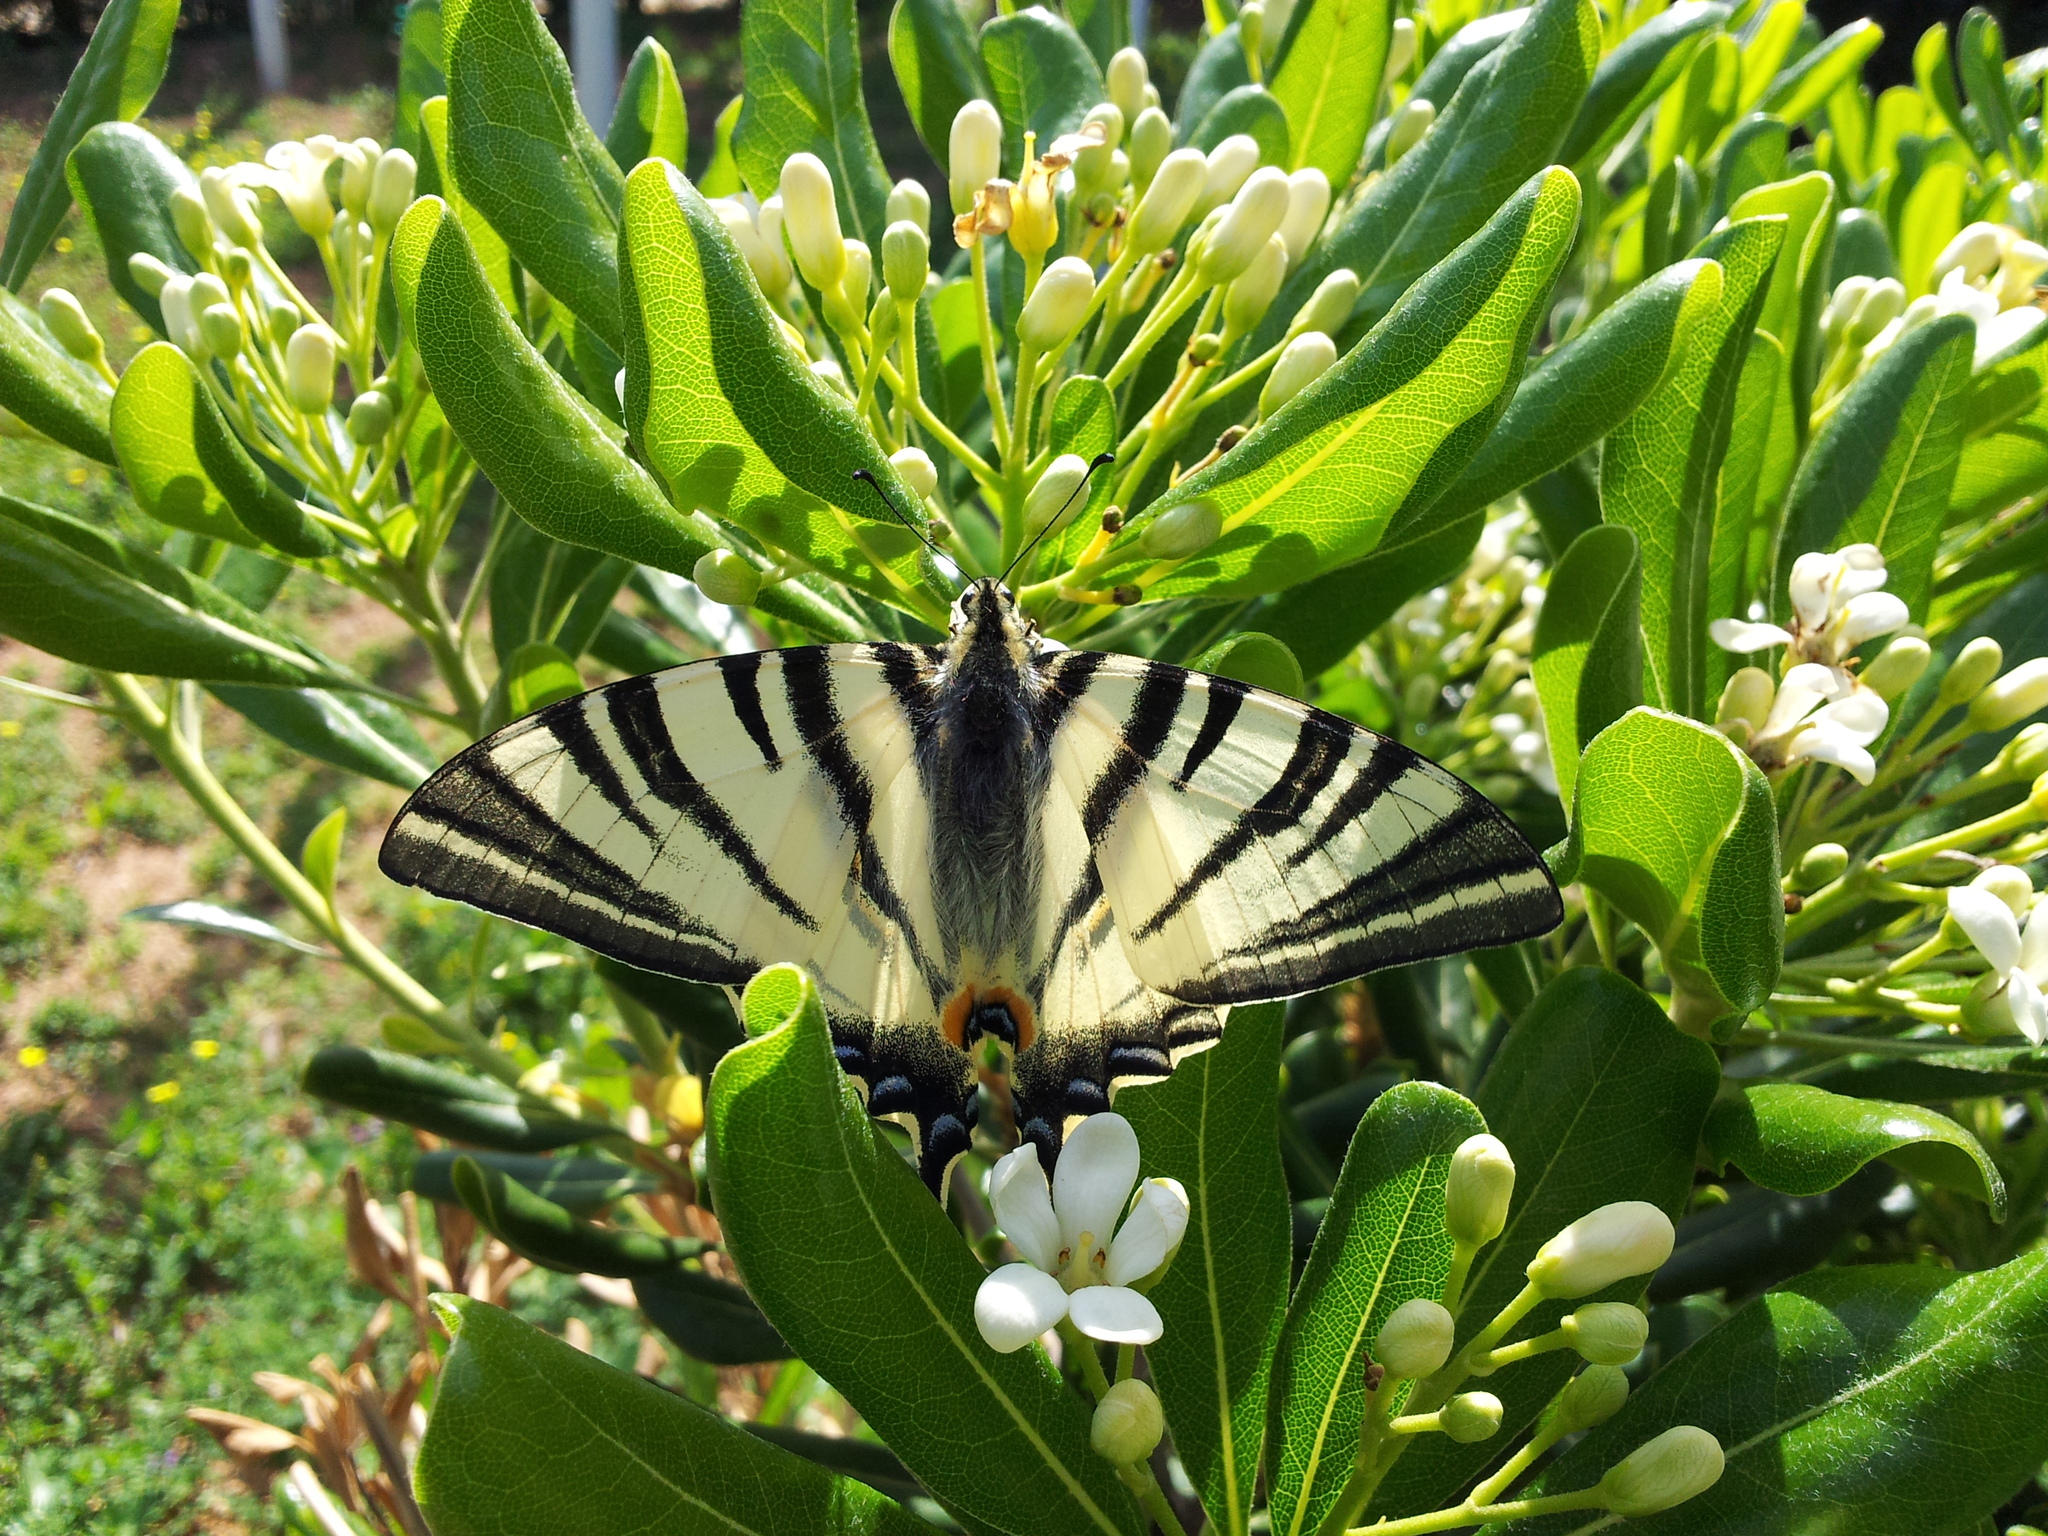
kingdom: Animalia
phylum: Arthropoda
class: Insecta
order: Lepidoptera
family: Papilionidae
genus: Iphiclides
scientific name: Iphiclides podalirius
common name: Scarce swallowtail
